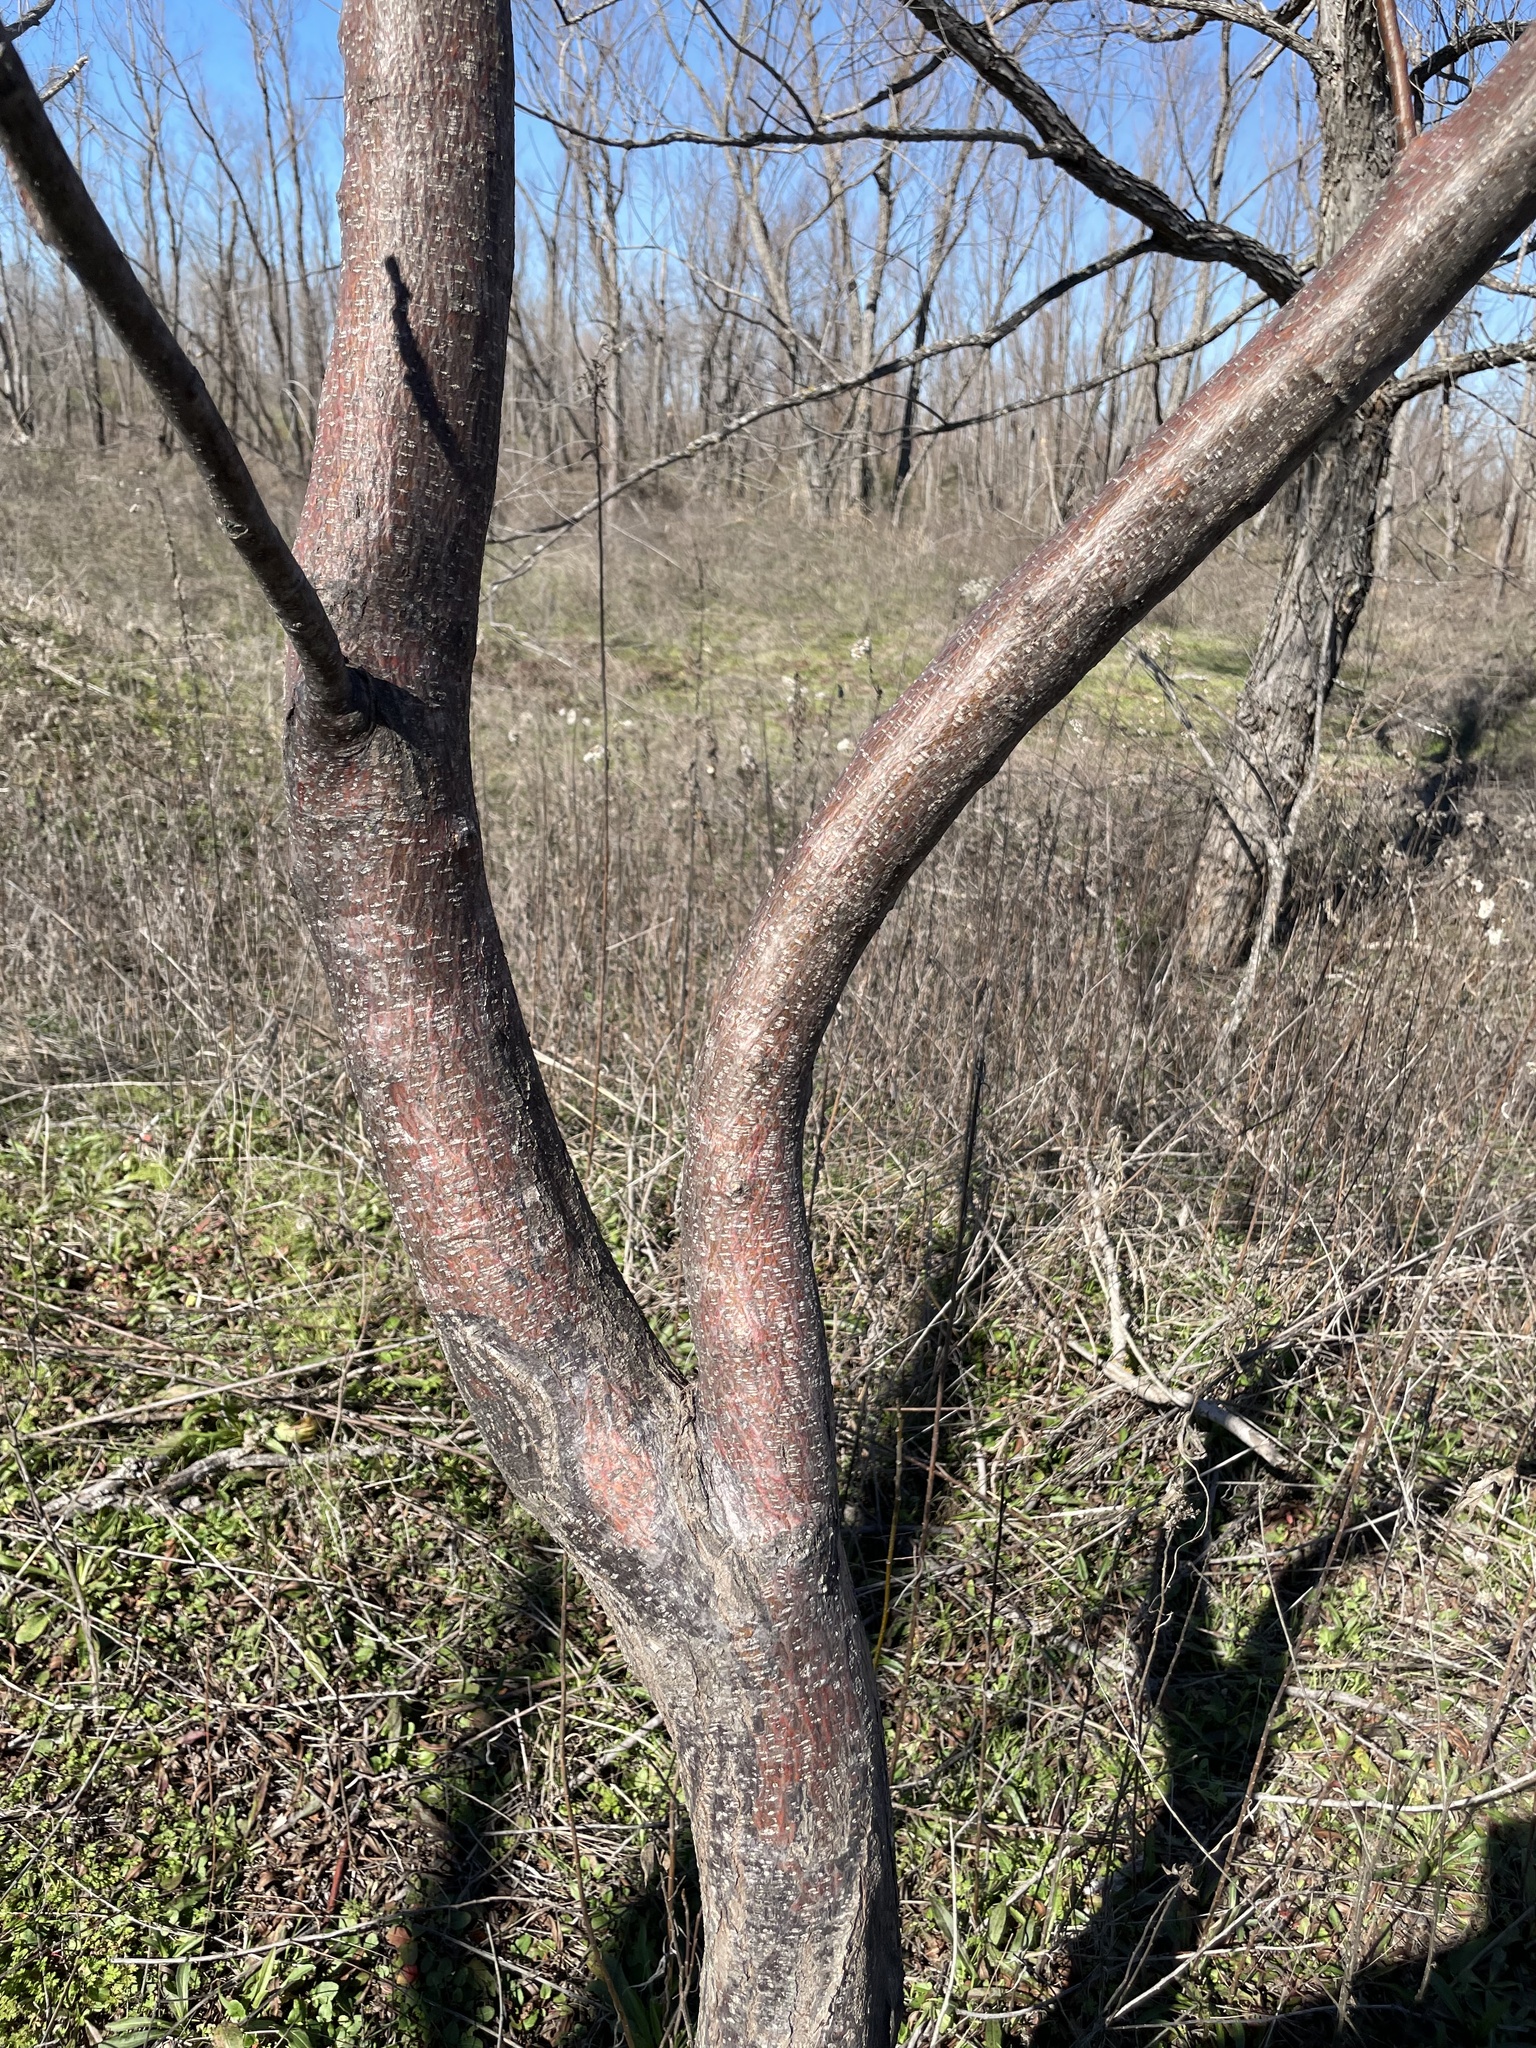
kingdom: Plantae
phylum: Tracheophyta
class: Magnoliopsida
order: Sapindales
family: Meliaceae
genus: Melia
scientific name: Melia azedarach
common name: Chinaberrytree
